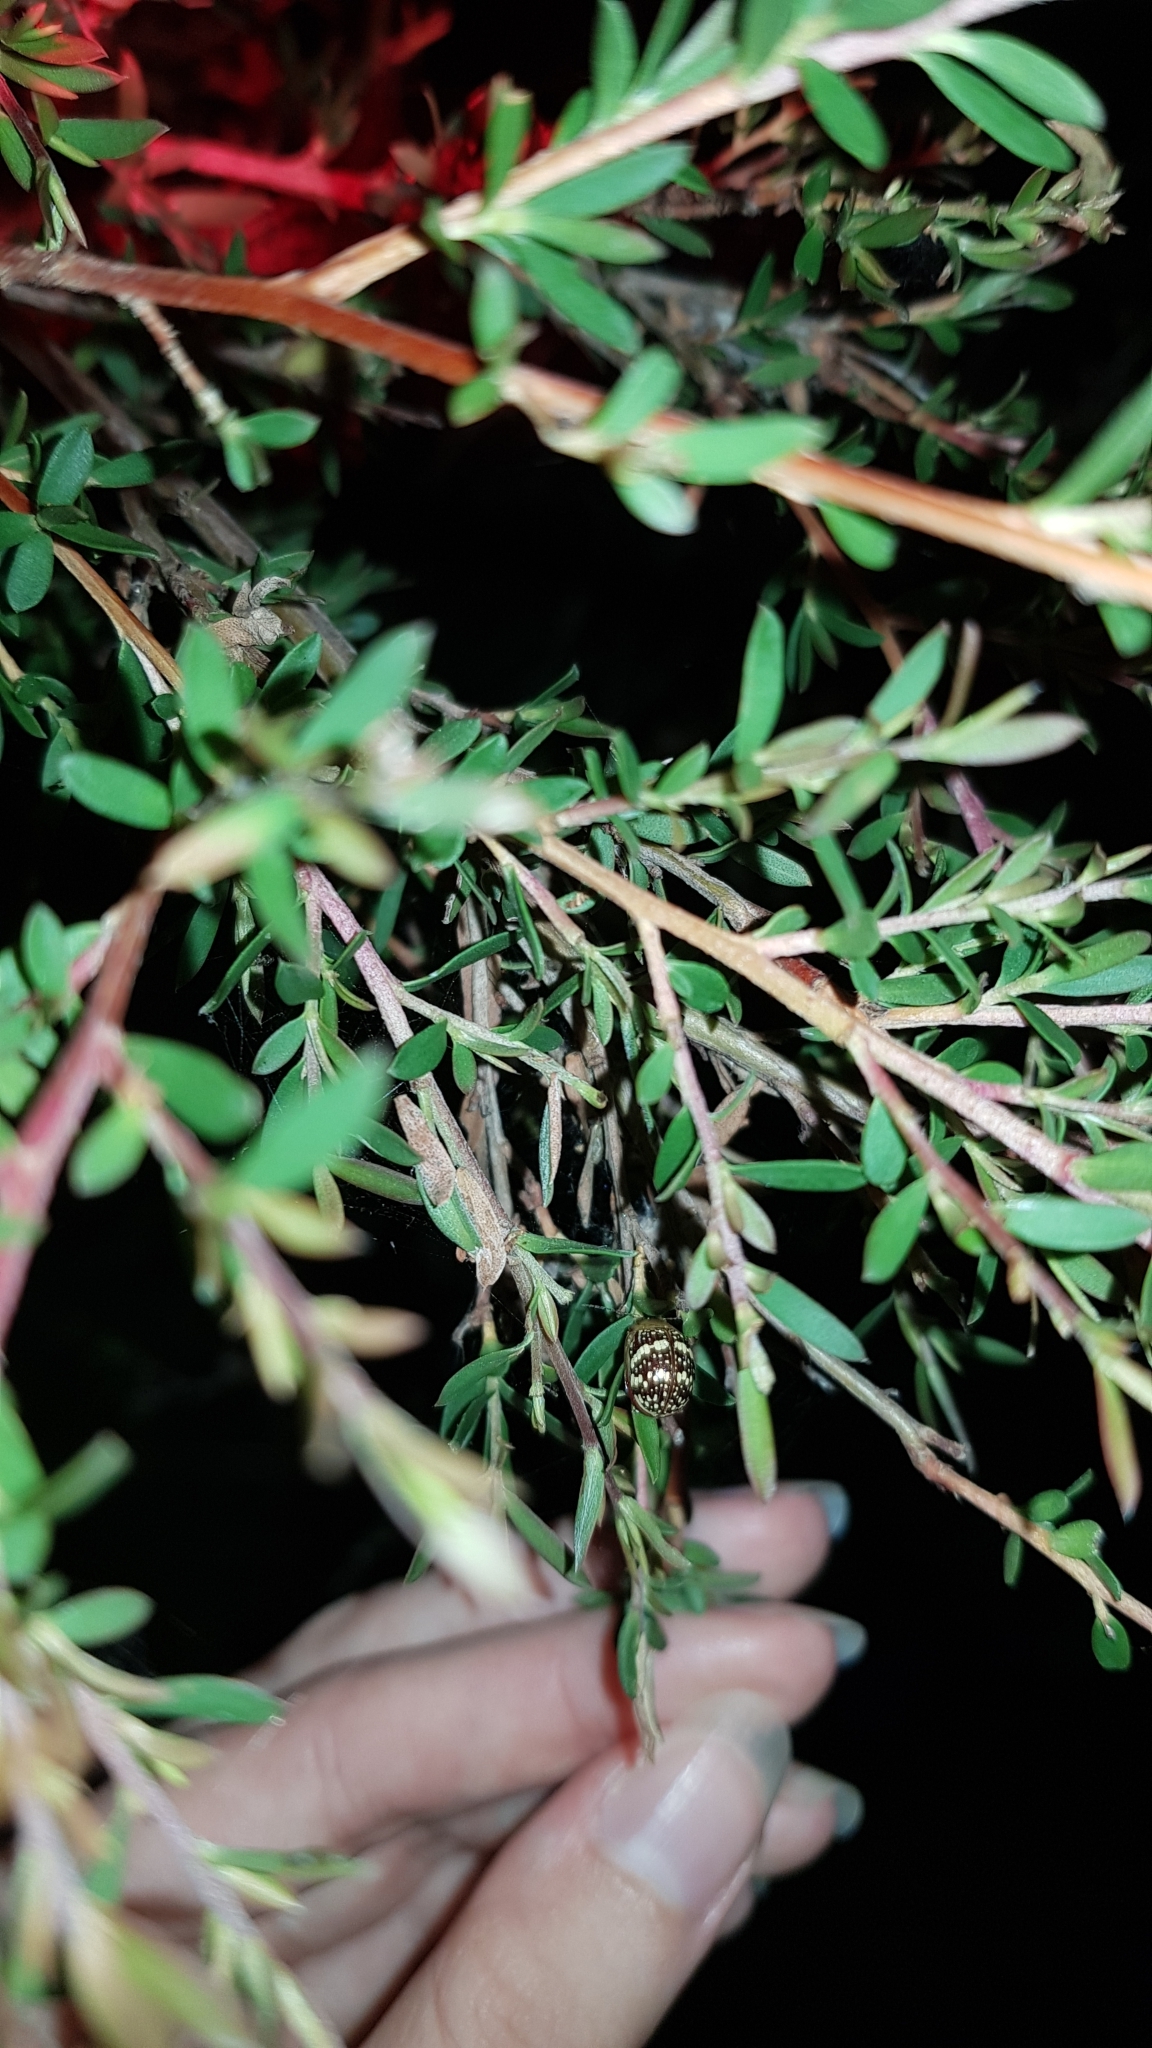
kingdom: Animalia
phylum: Arthropoda
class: Insecta
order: Coleoptera
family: Chrysomelidae
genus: Paropsis
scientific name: Paropsis
